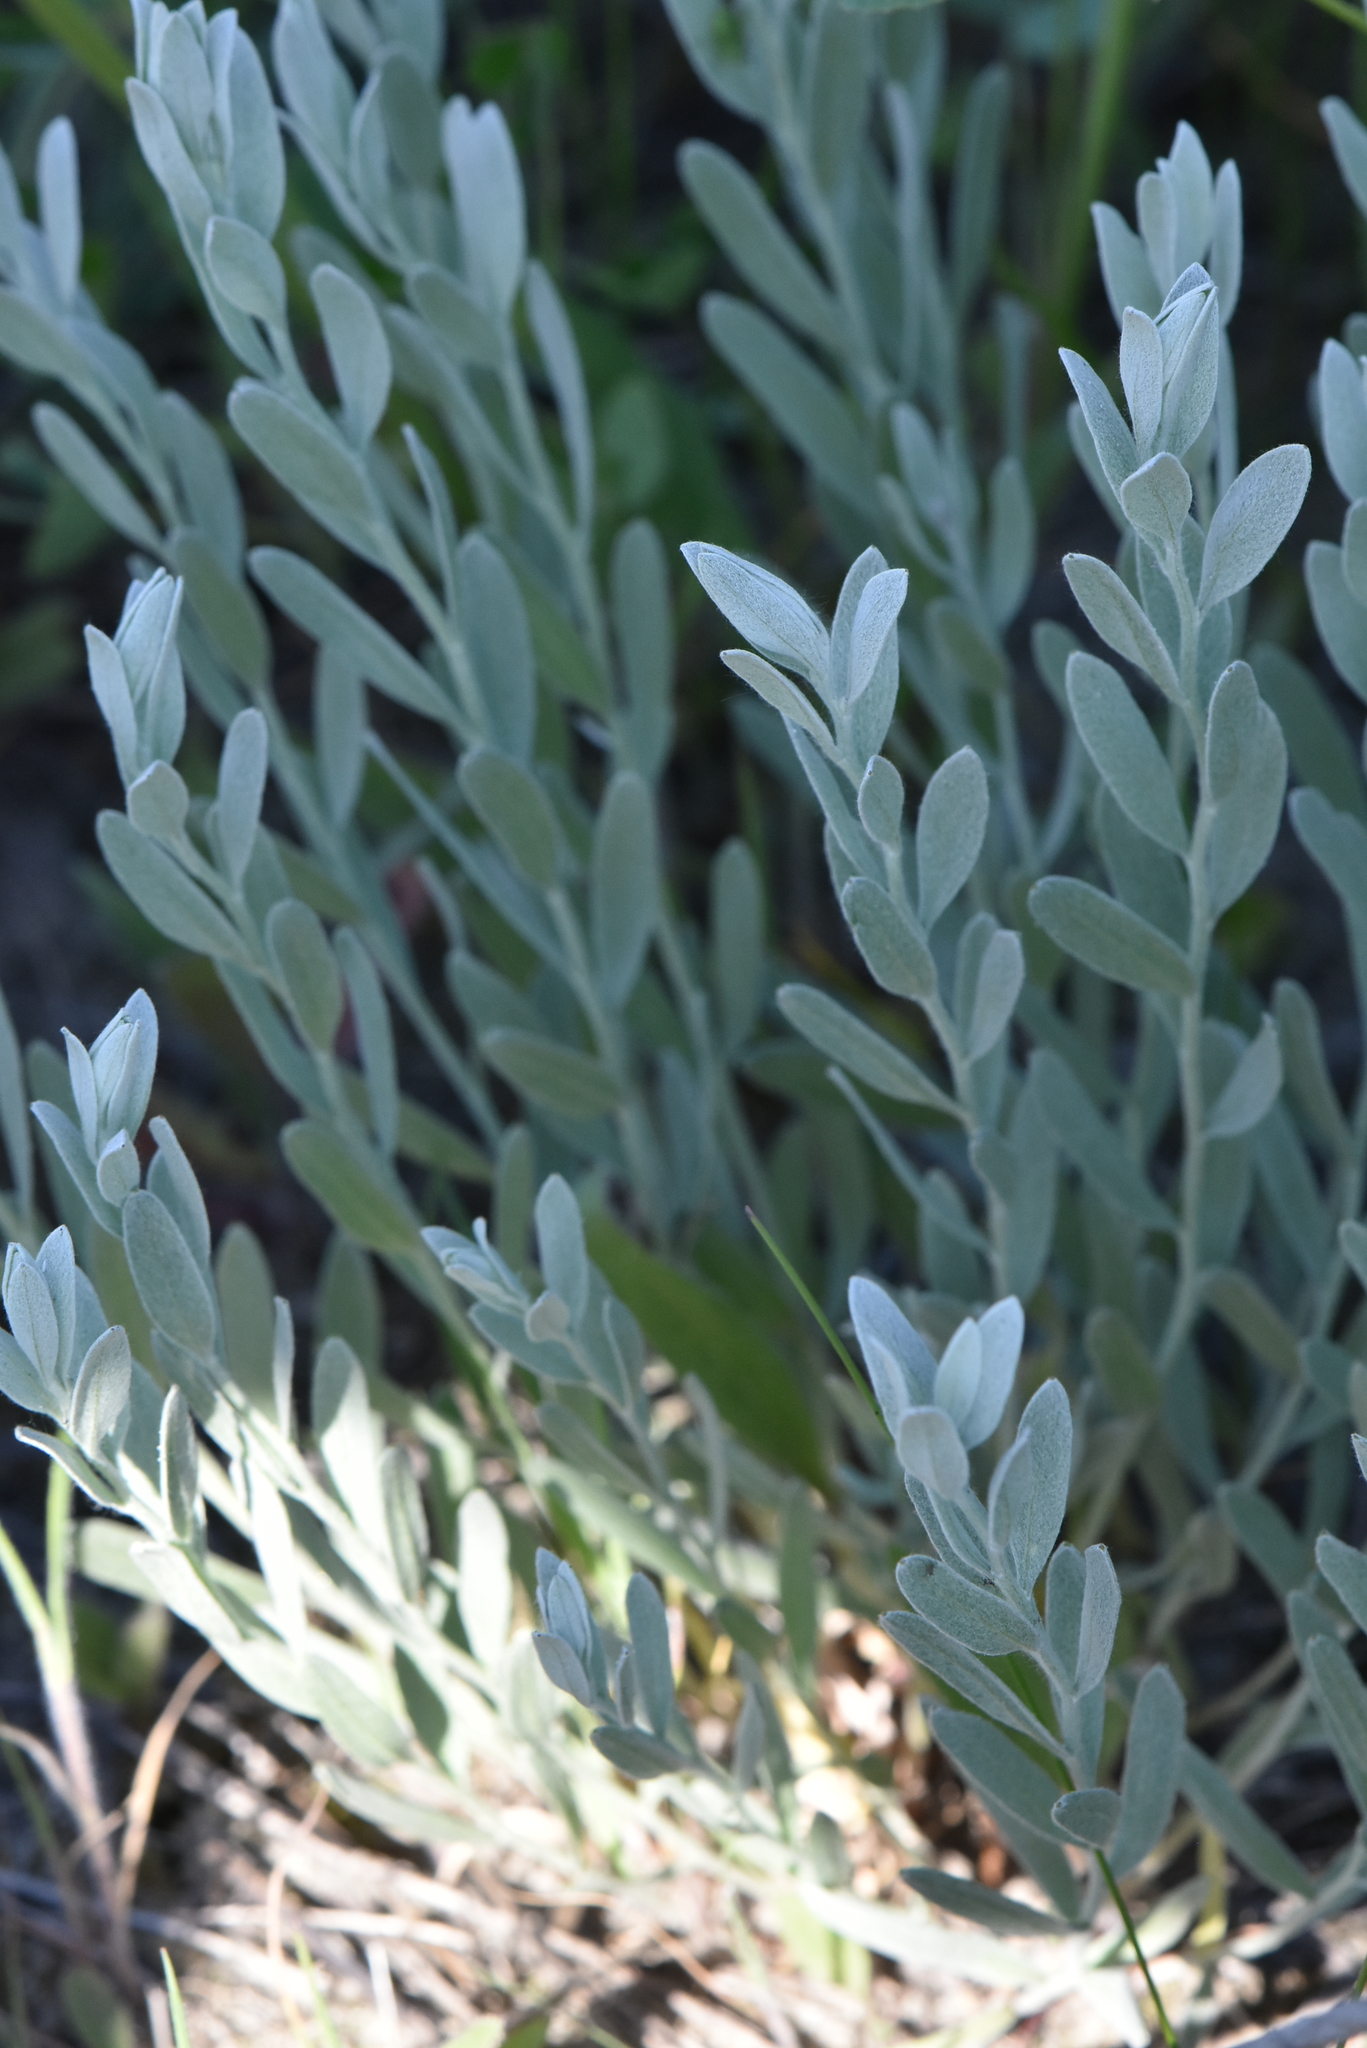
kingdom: Plantae
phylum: Tracheophyta
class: Magnoliopsida
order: Asterales
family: Asteraceae
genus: Galatella
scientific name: Galatella villosa
